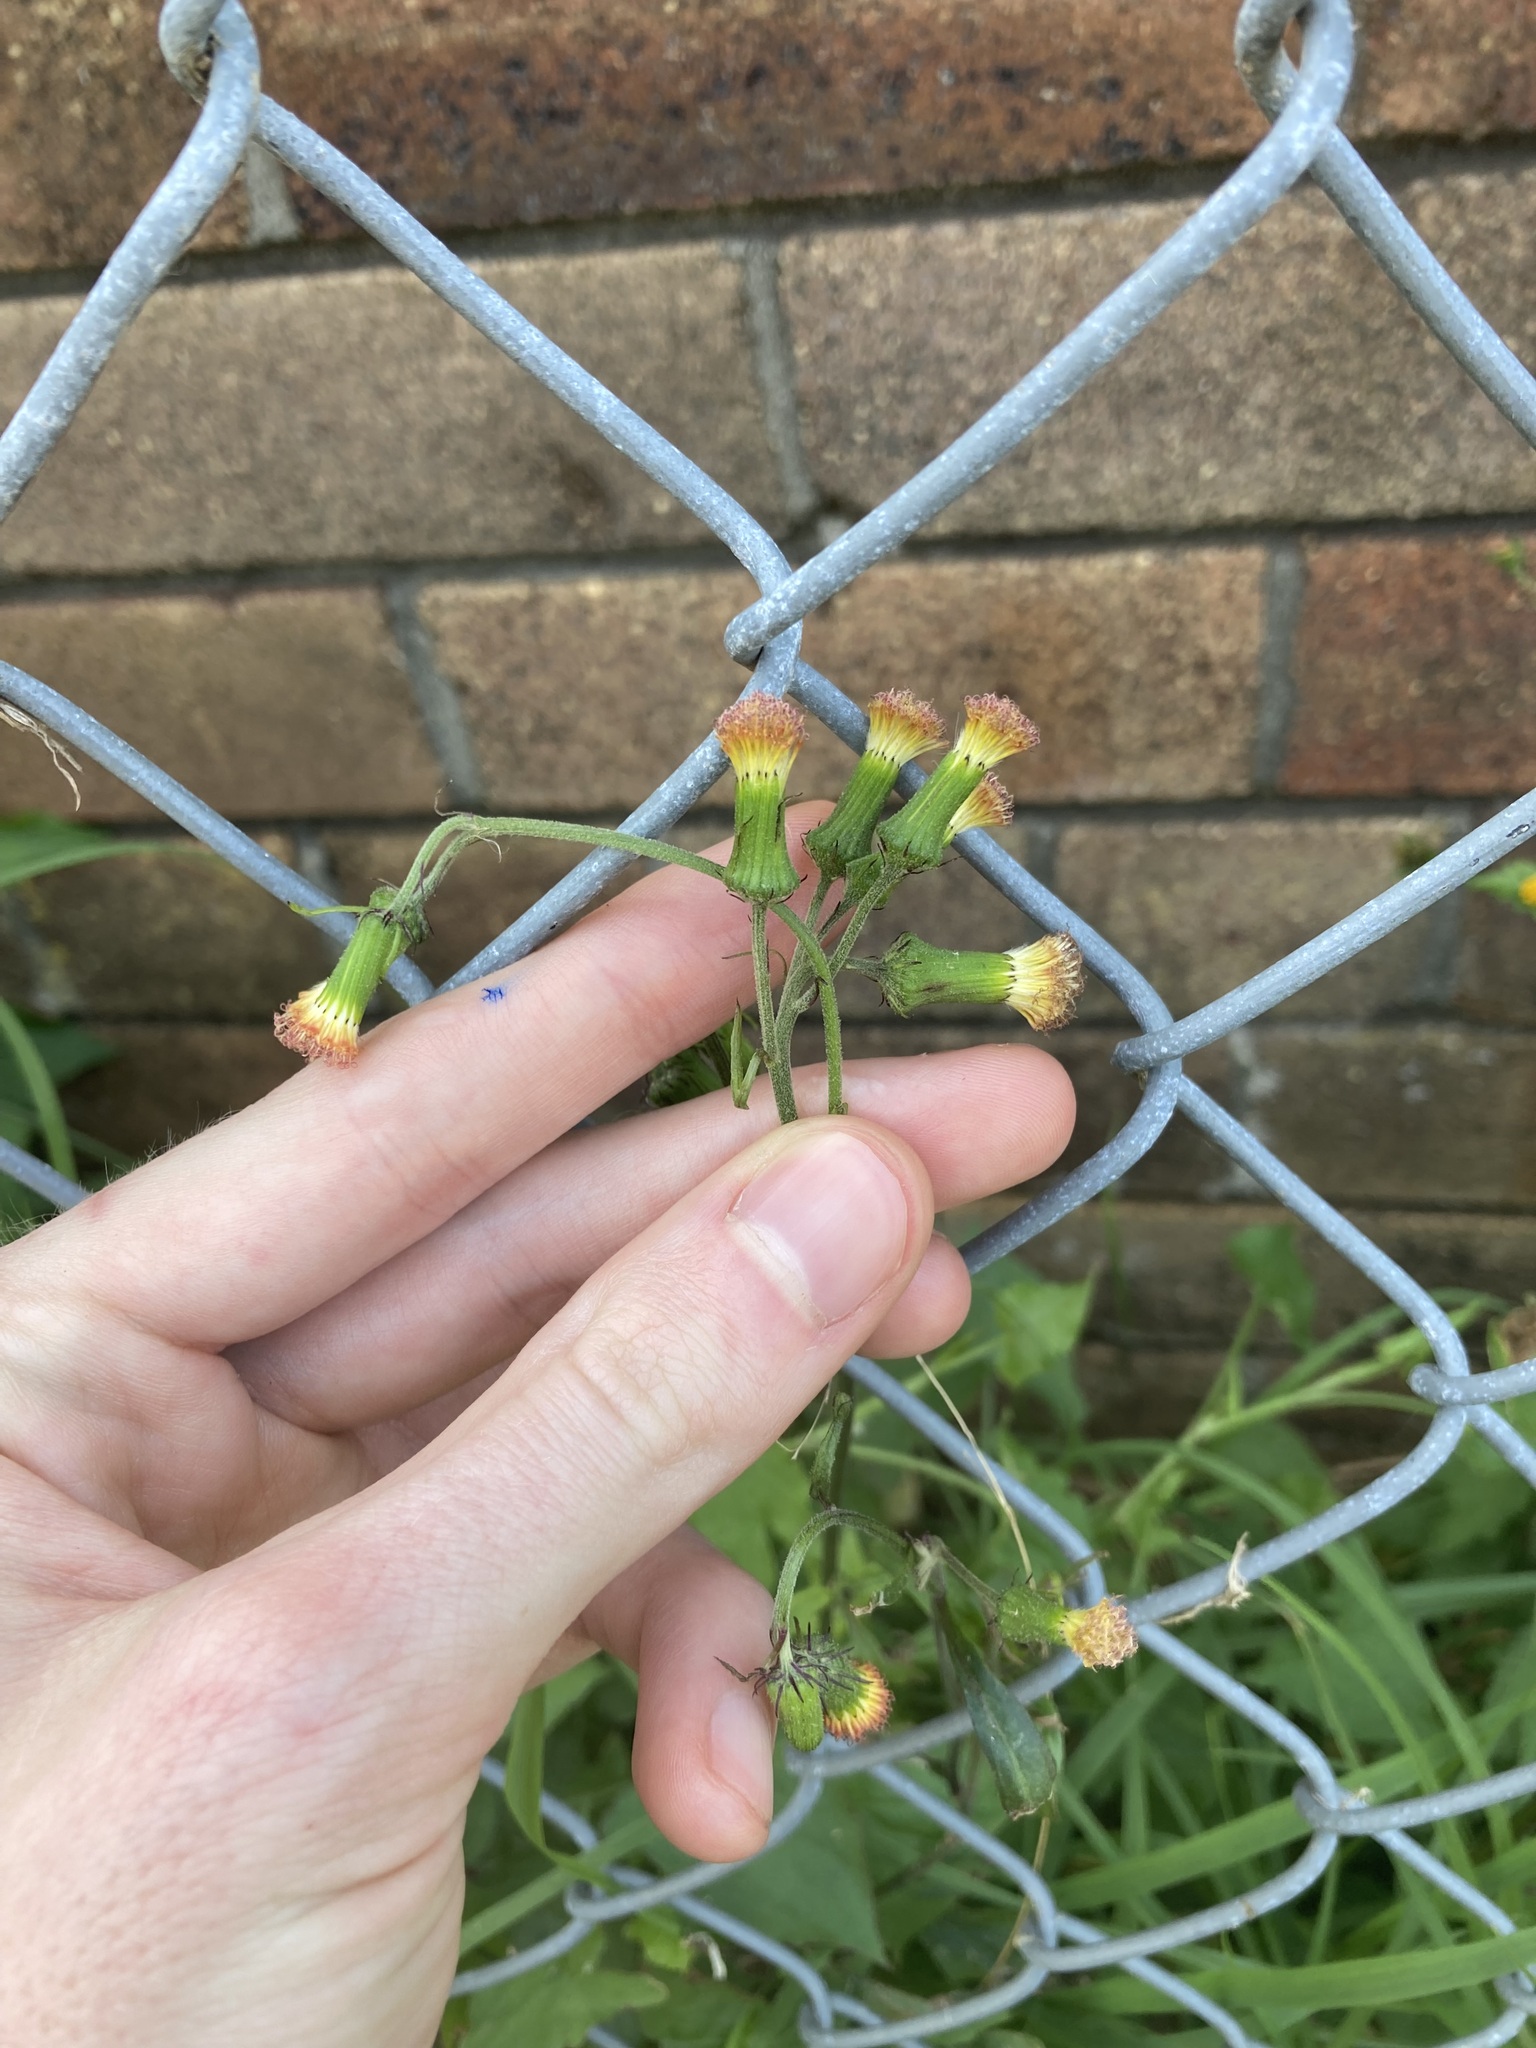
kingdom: Plantae
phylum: Tracheophyta
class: Magnoliopsida
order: Asterales
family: Asteraceae
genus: Crassocephalum
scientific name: Crassocephalum crepidioides
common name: Redflower ragleaf
